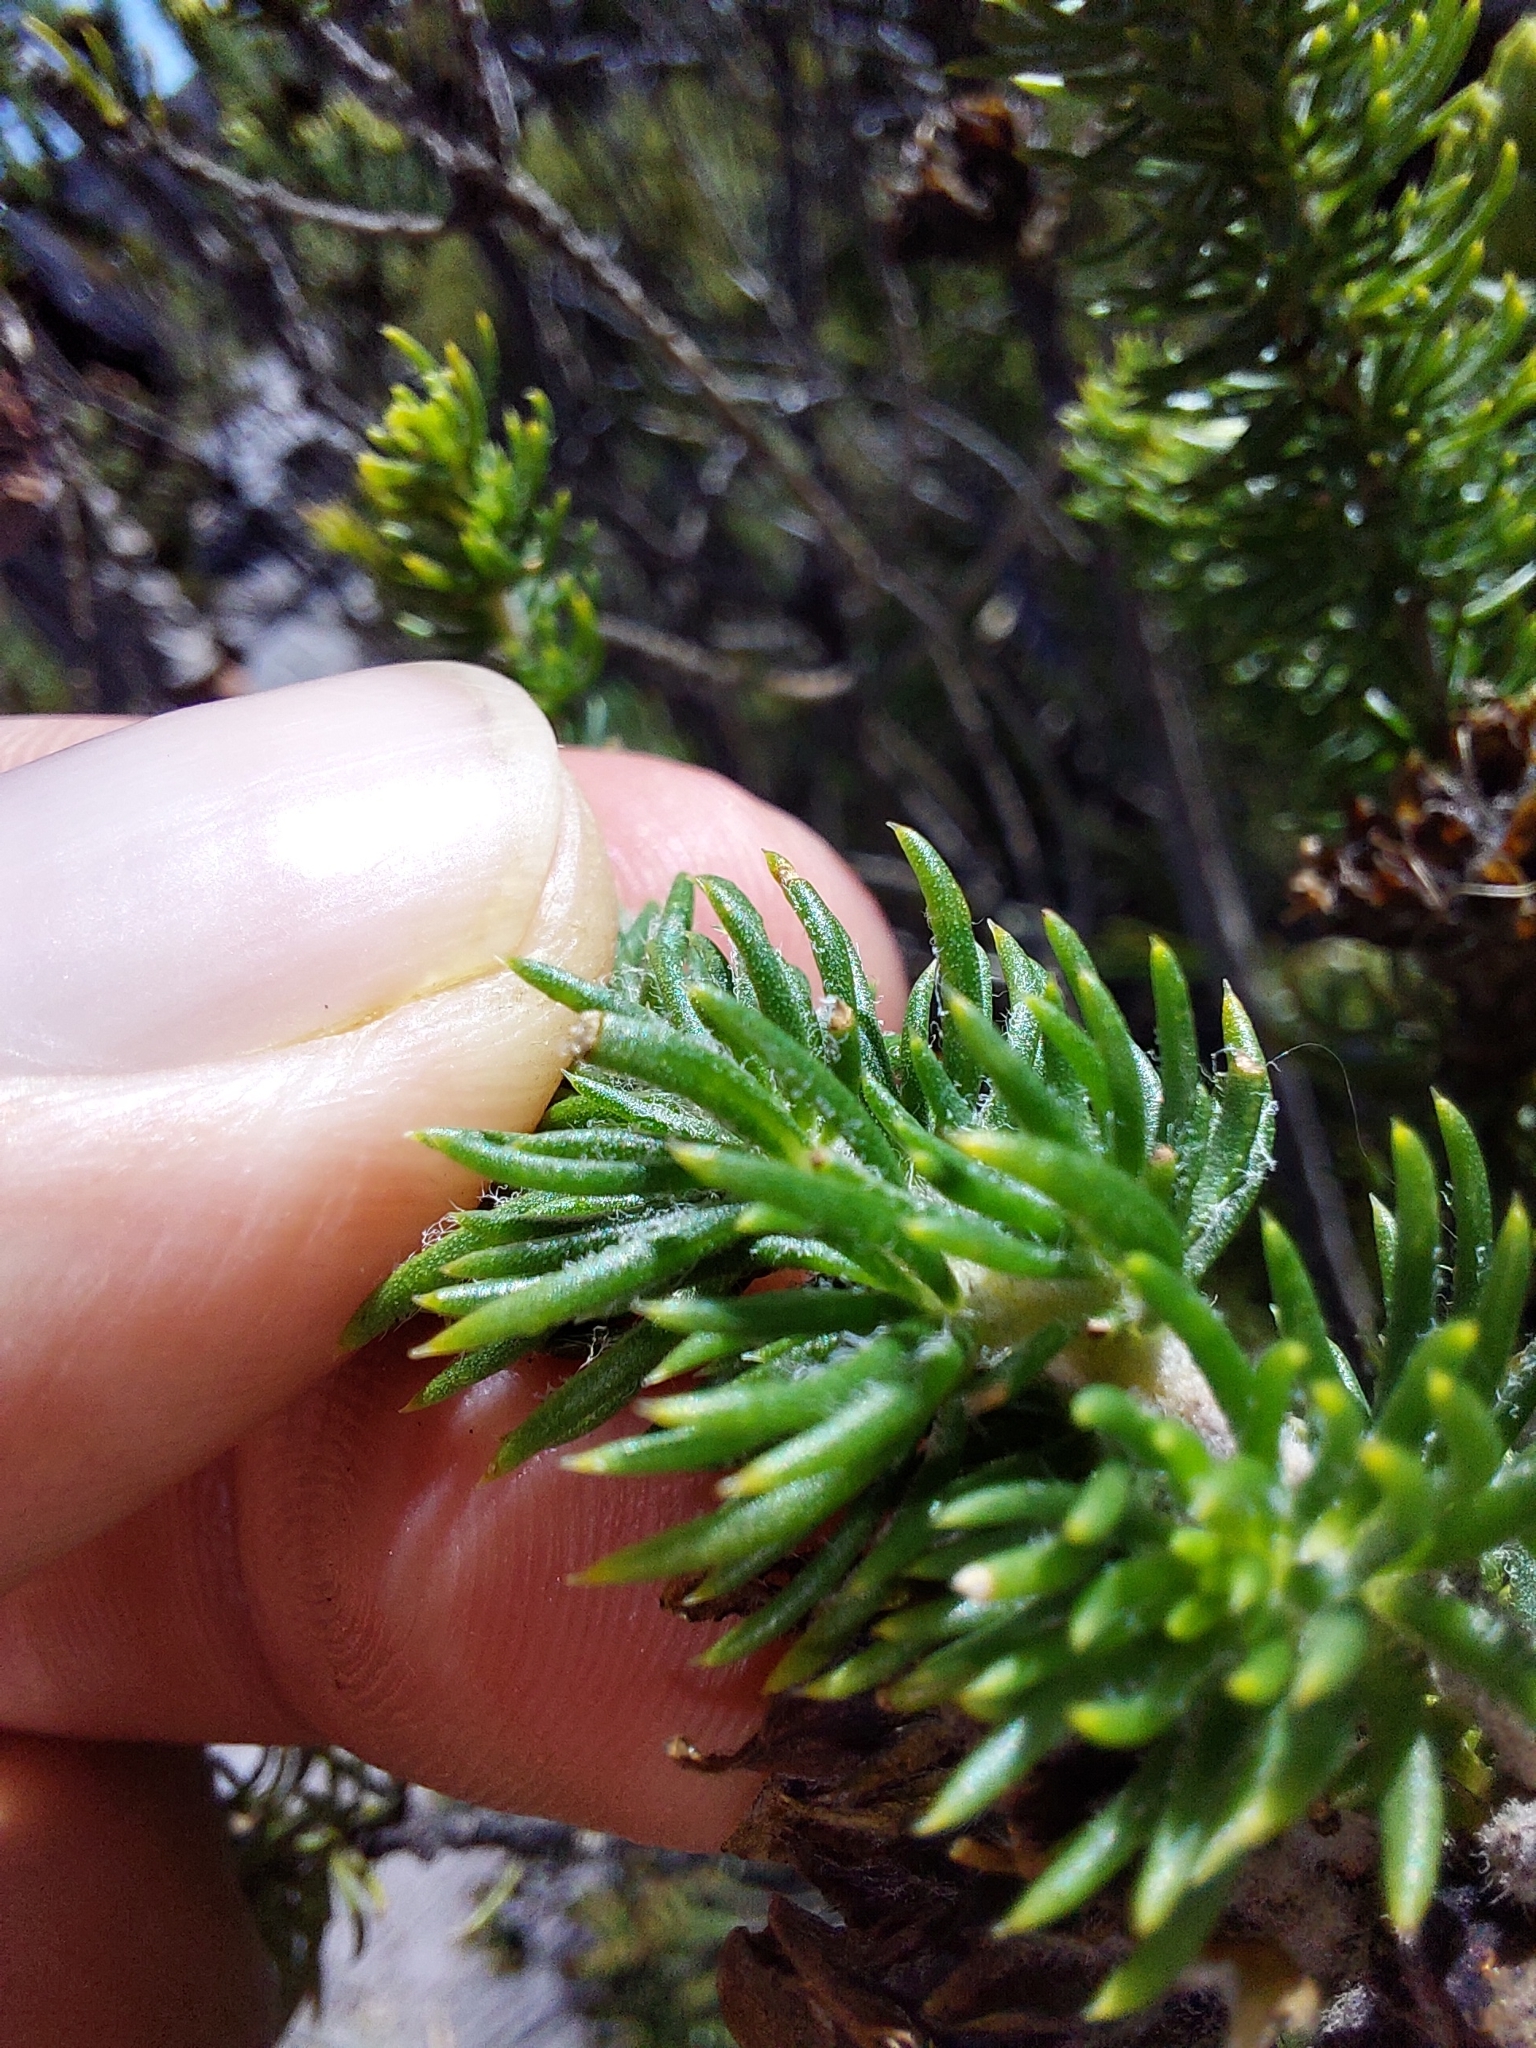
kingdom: Plantae
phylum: Tracheophyta
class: Magnoliopsida
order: Fabales
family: Fabaceae
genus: Aspalathus
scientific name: Aspalathus capitata
